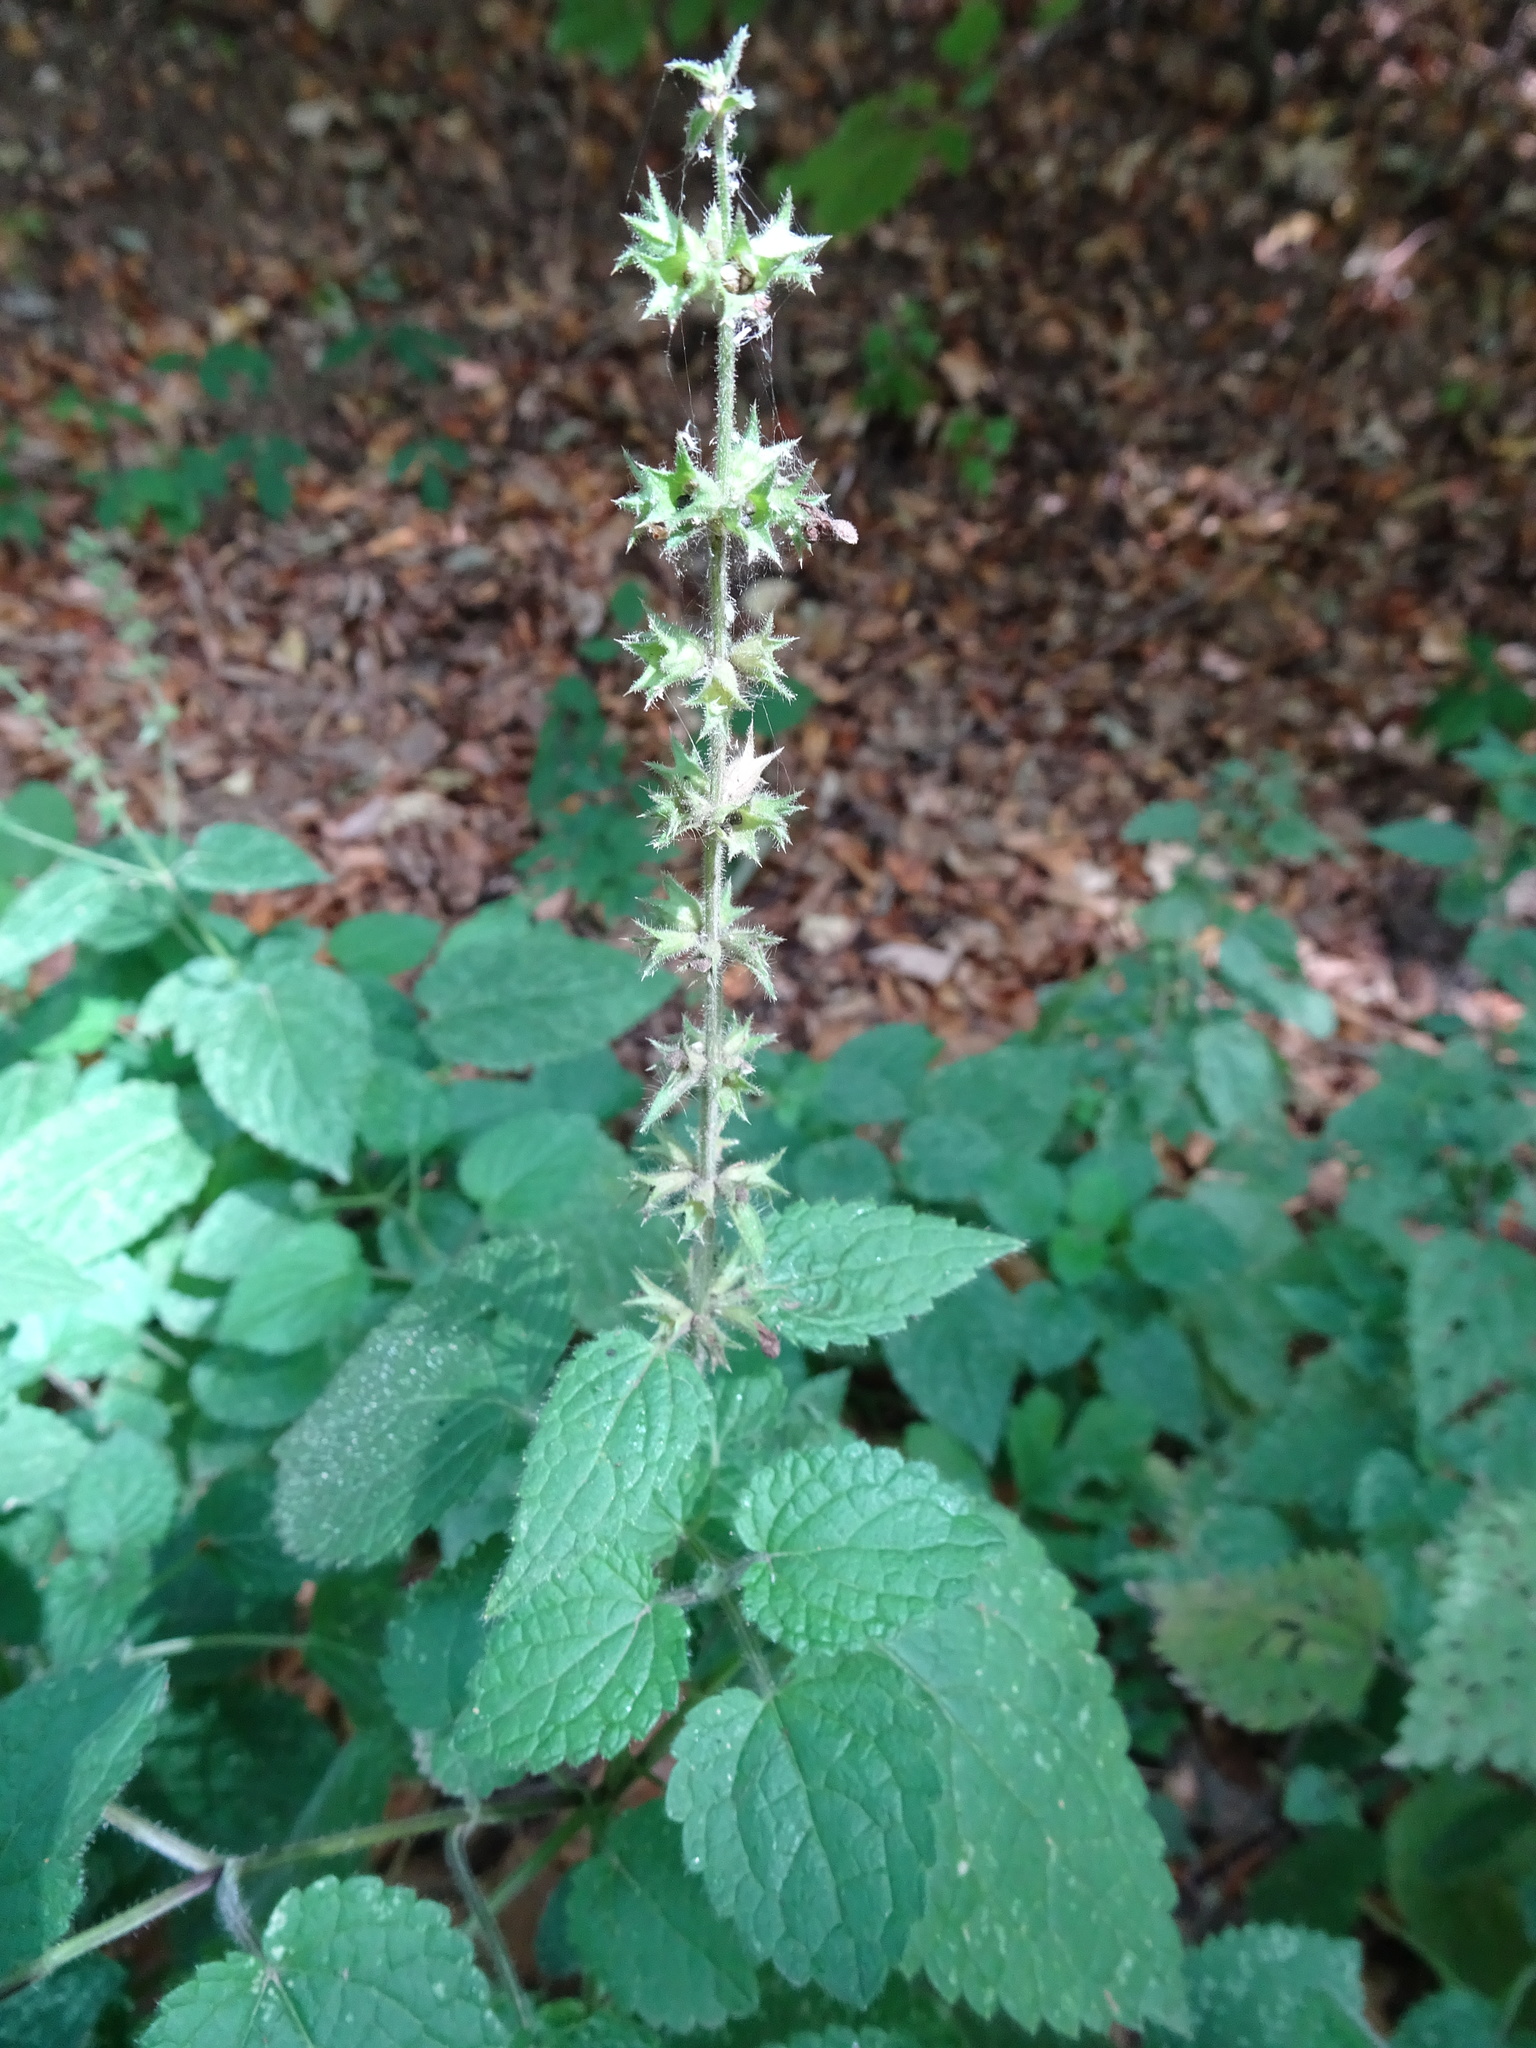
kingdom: Plantae
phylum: Tracheophyta
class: Magnoliopsida
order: Lamiales
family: Lamiaceae
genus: Stachys
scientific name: Stachys sylvatica
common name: Hedge woundwort
